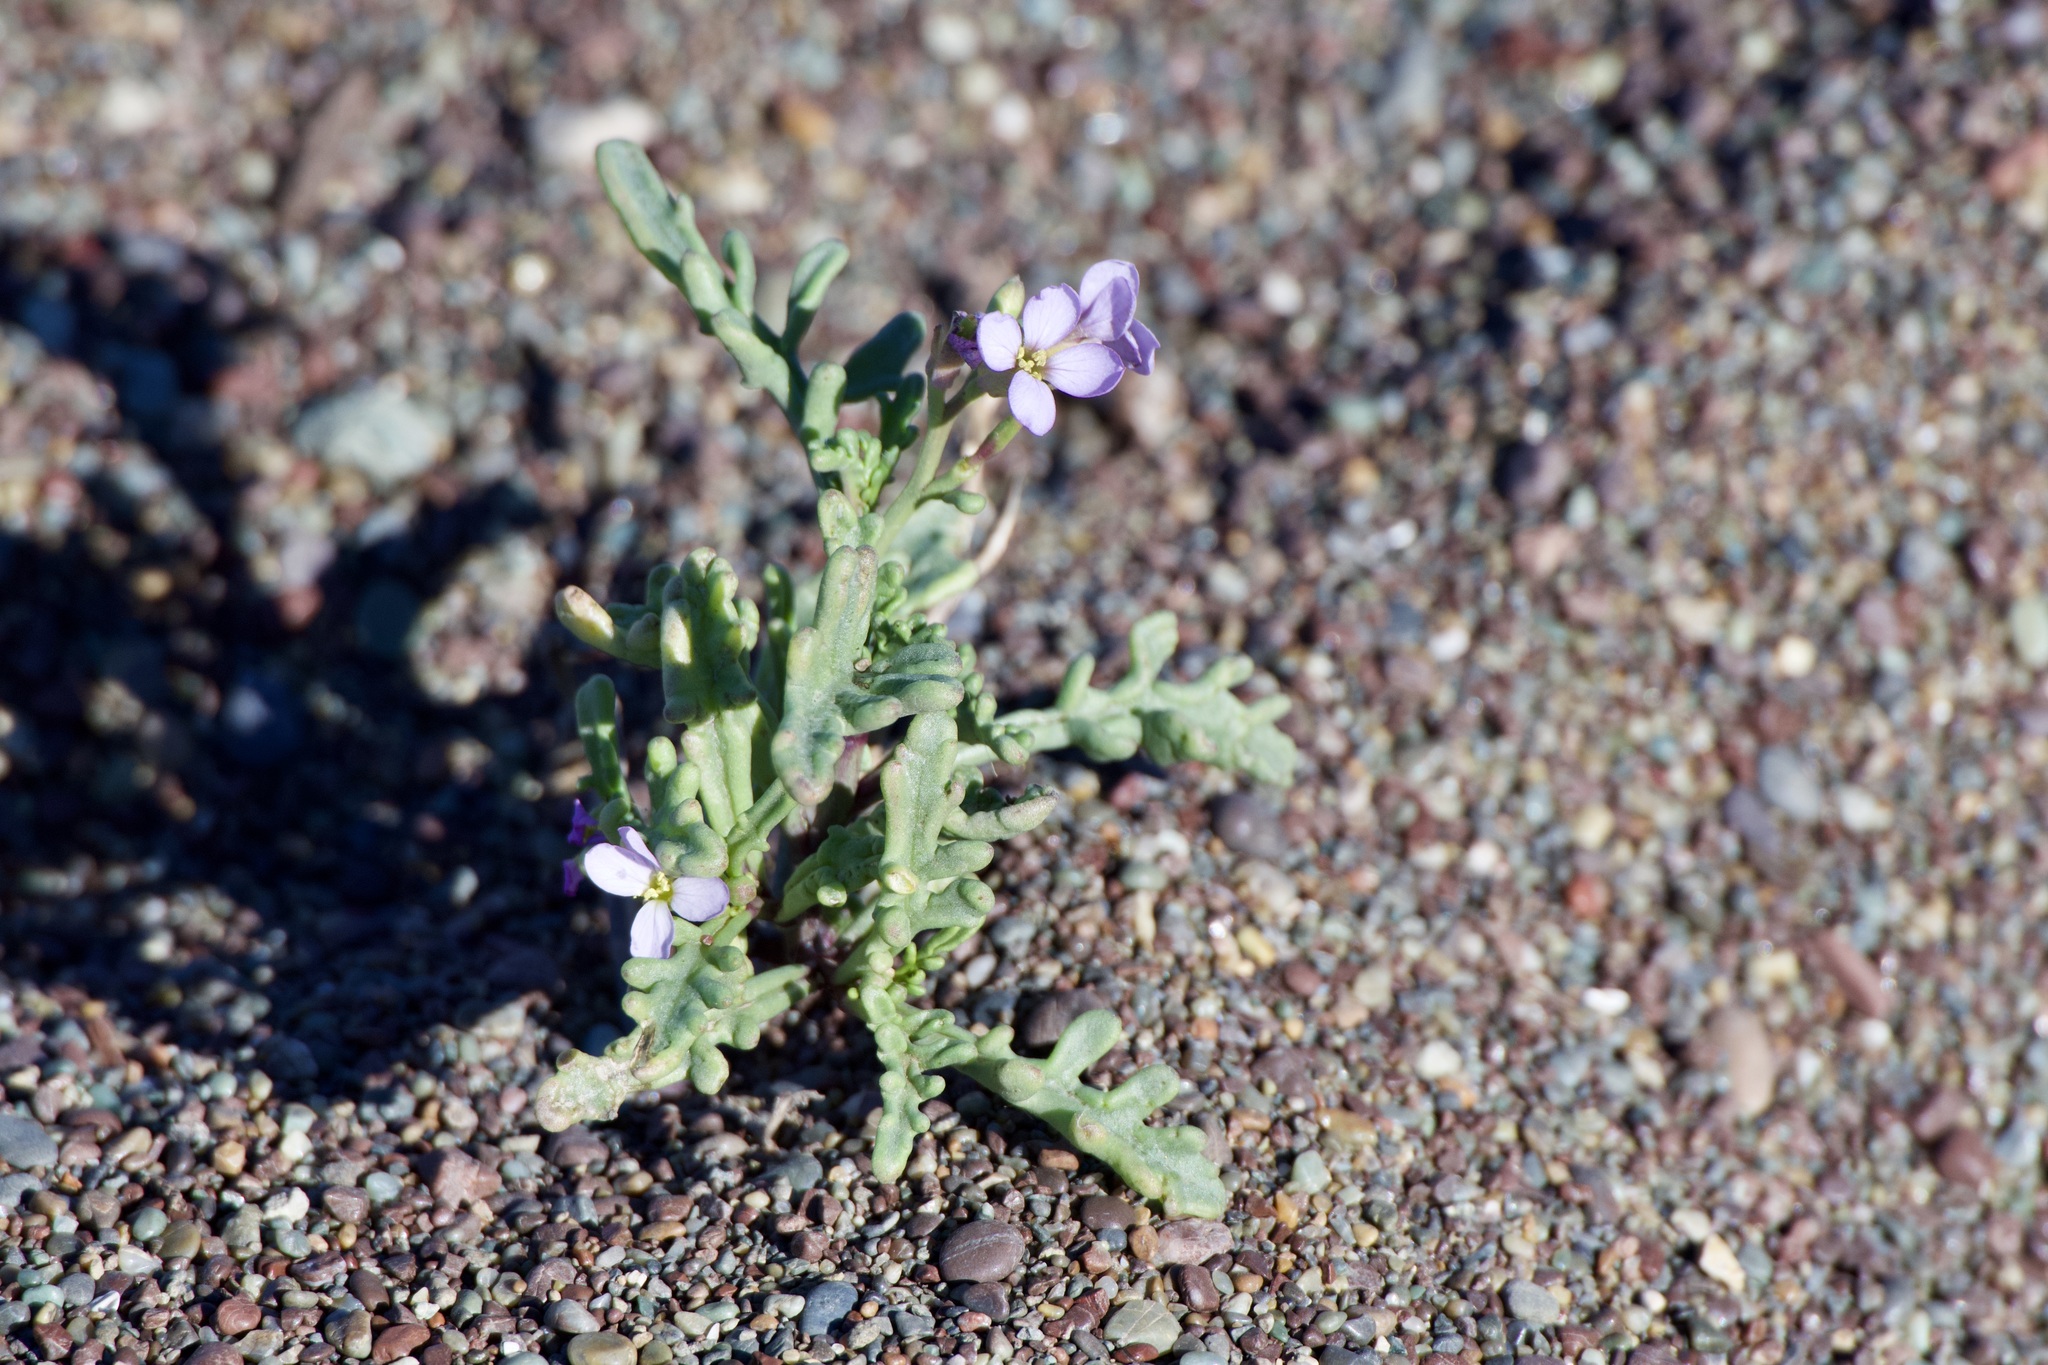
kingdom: Plantae
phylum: Tracheophyta
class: Magnoliopsida
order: Brassicales
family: Brassicaceae
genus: Cakile
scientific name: Cakile maritima
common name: Sea rocket
